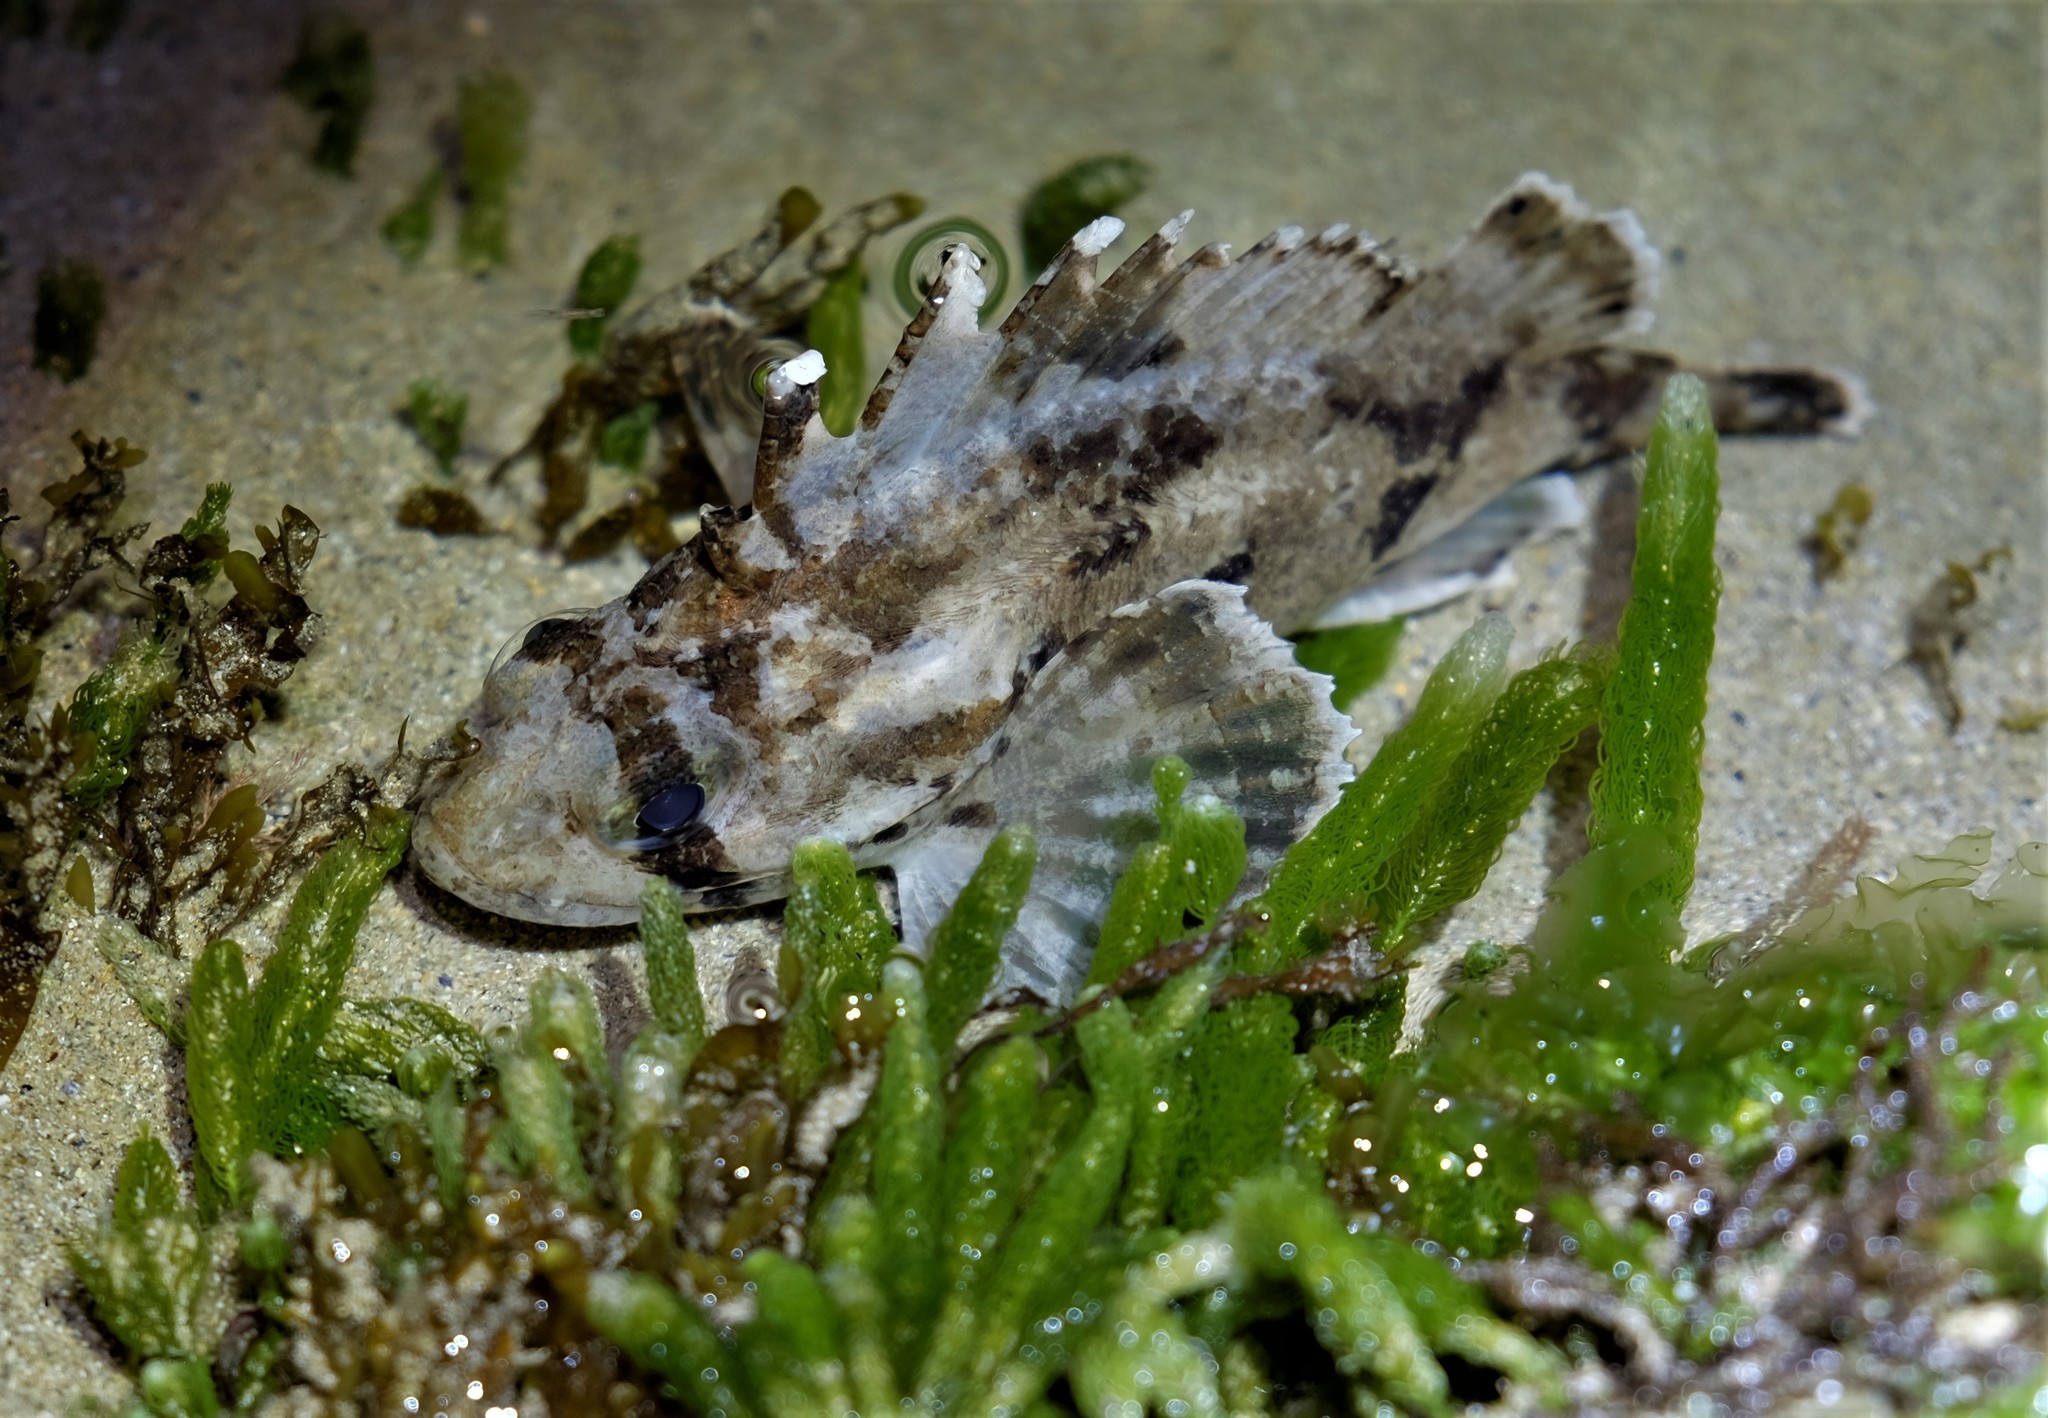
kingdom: Animalia
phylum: Chordata
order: Scorpaeniformes
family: Tetrarogidae
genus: Gymnapistes
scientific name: Gymnapistes marmoratus
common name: South australian cobbler
